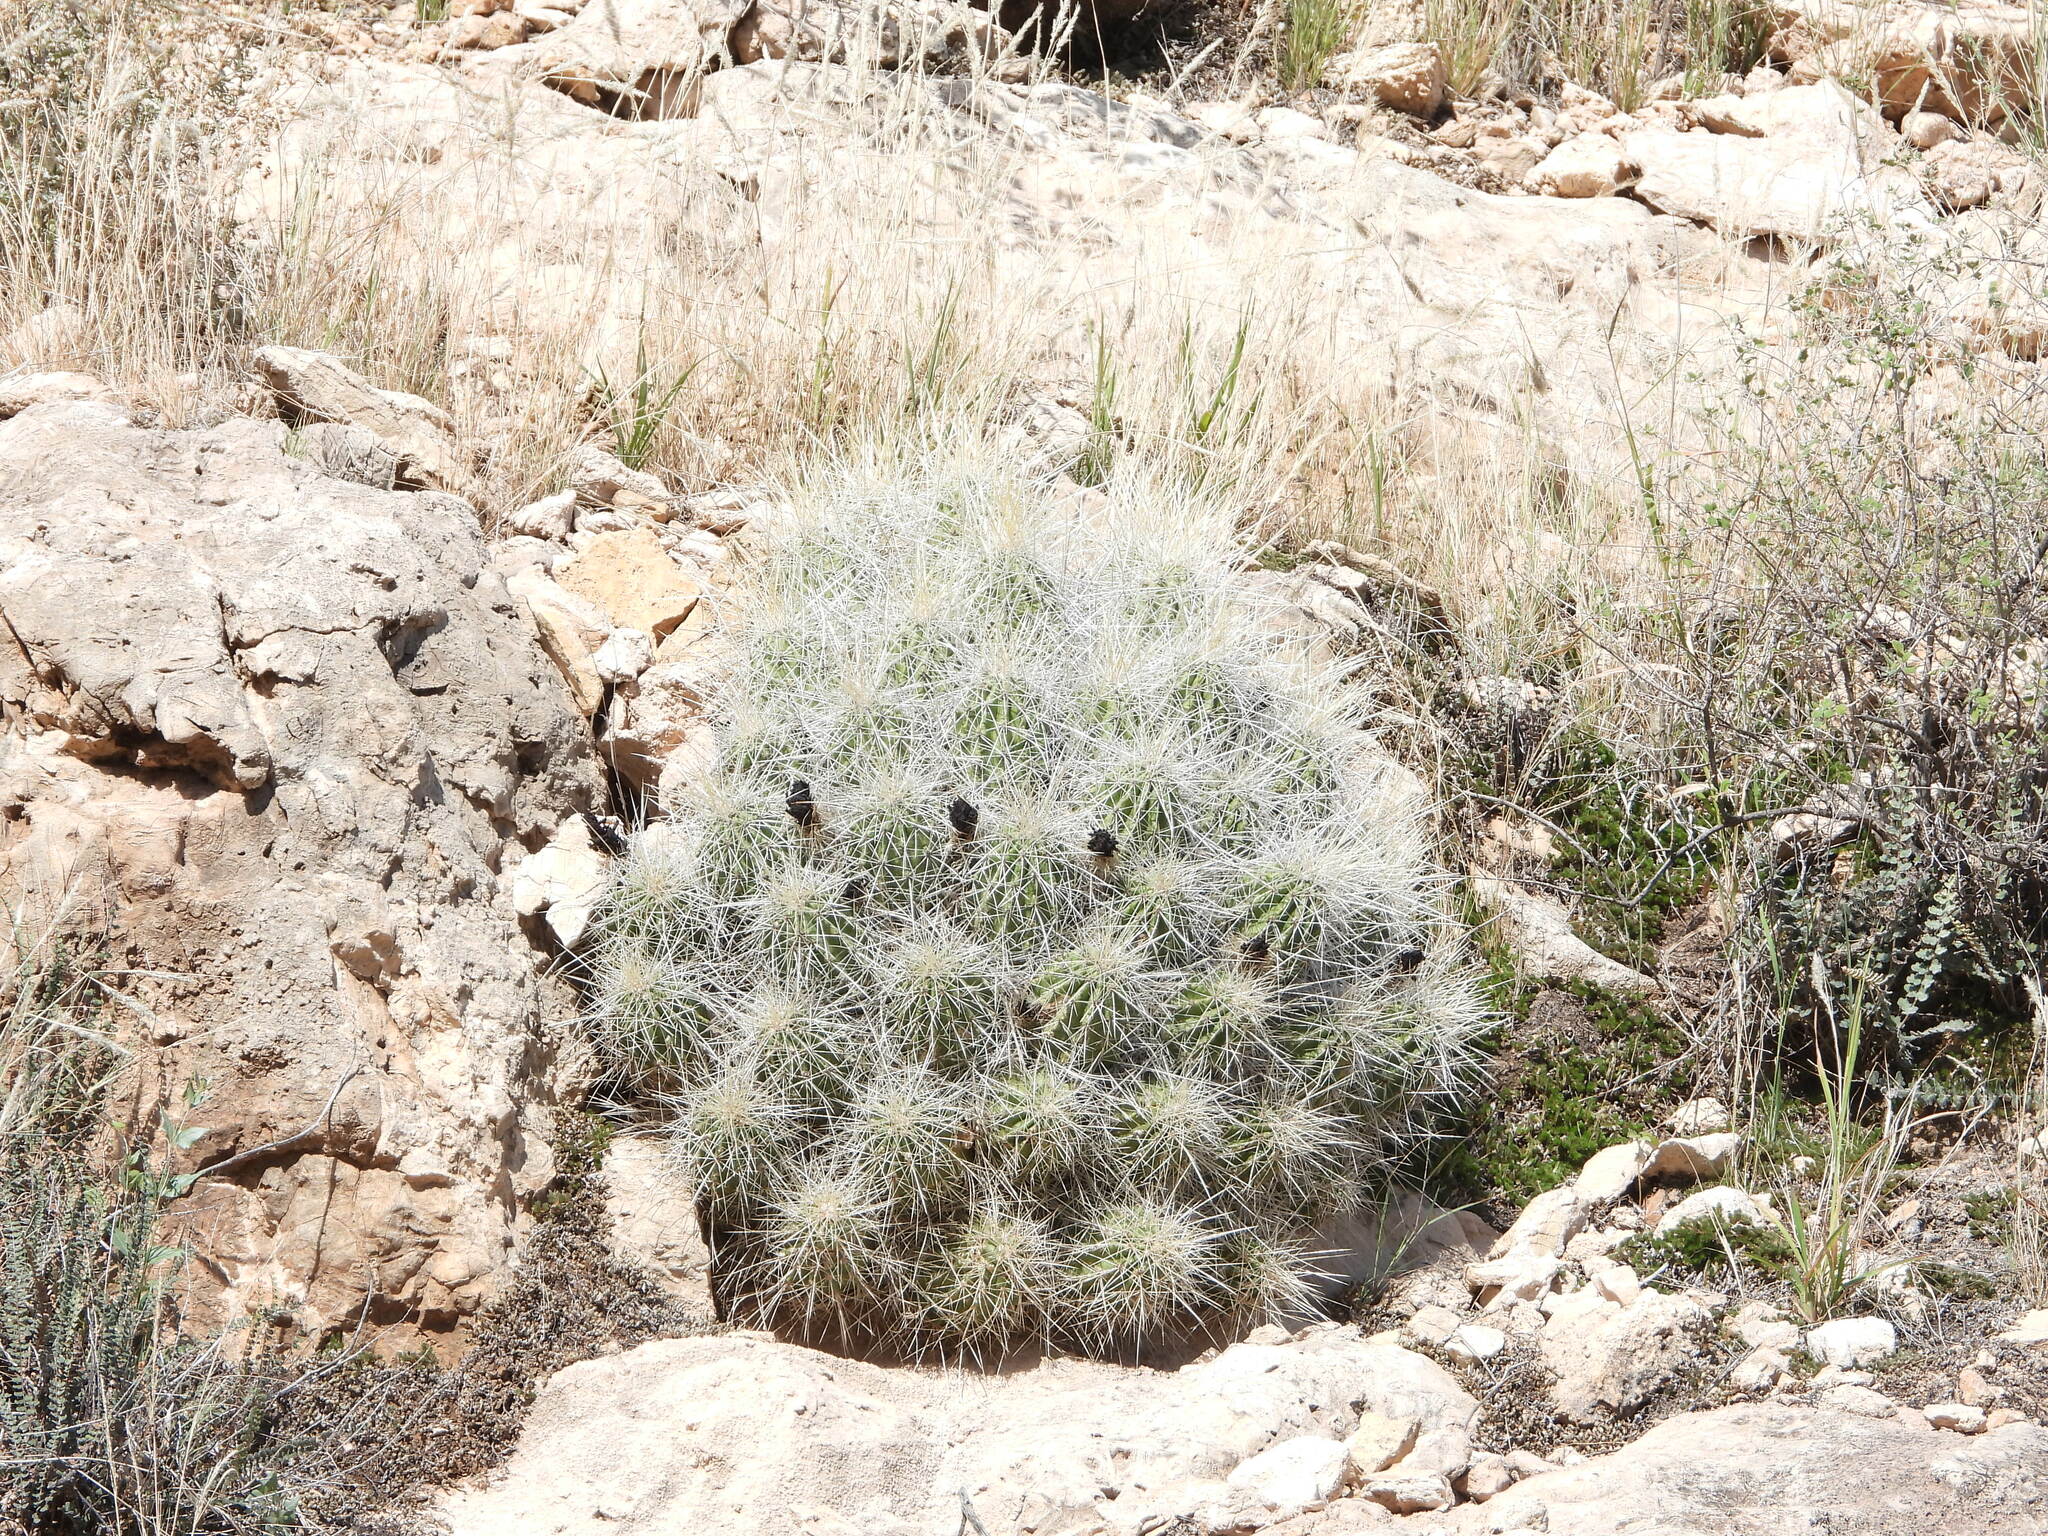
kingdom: Plantae
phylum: Tracheophyta
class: Magnoliopsida
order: Caryophyllales
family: Cactaceae
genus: Echinocereus
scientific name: Echinocereus stramineus
